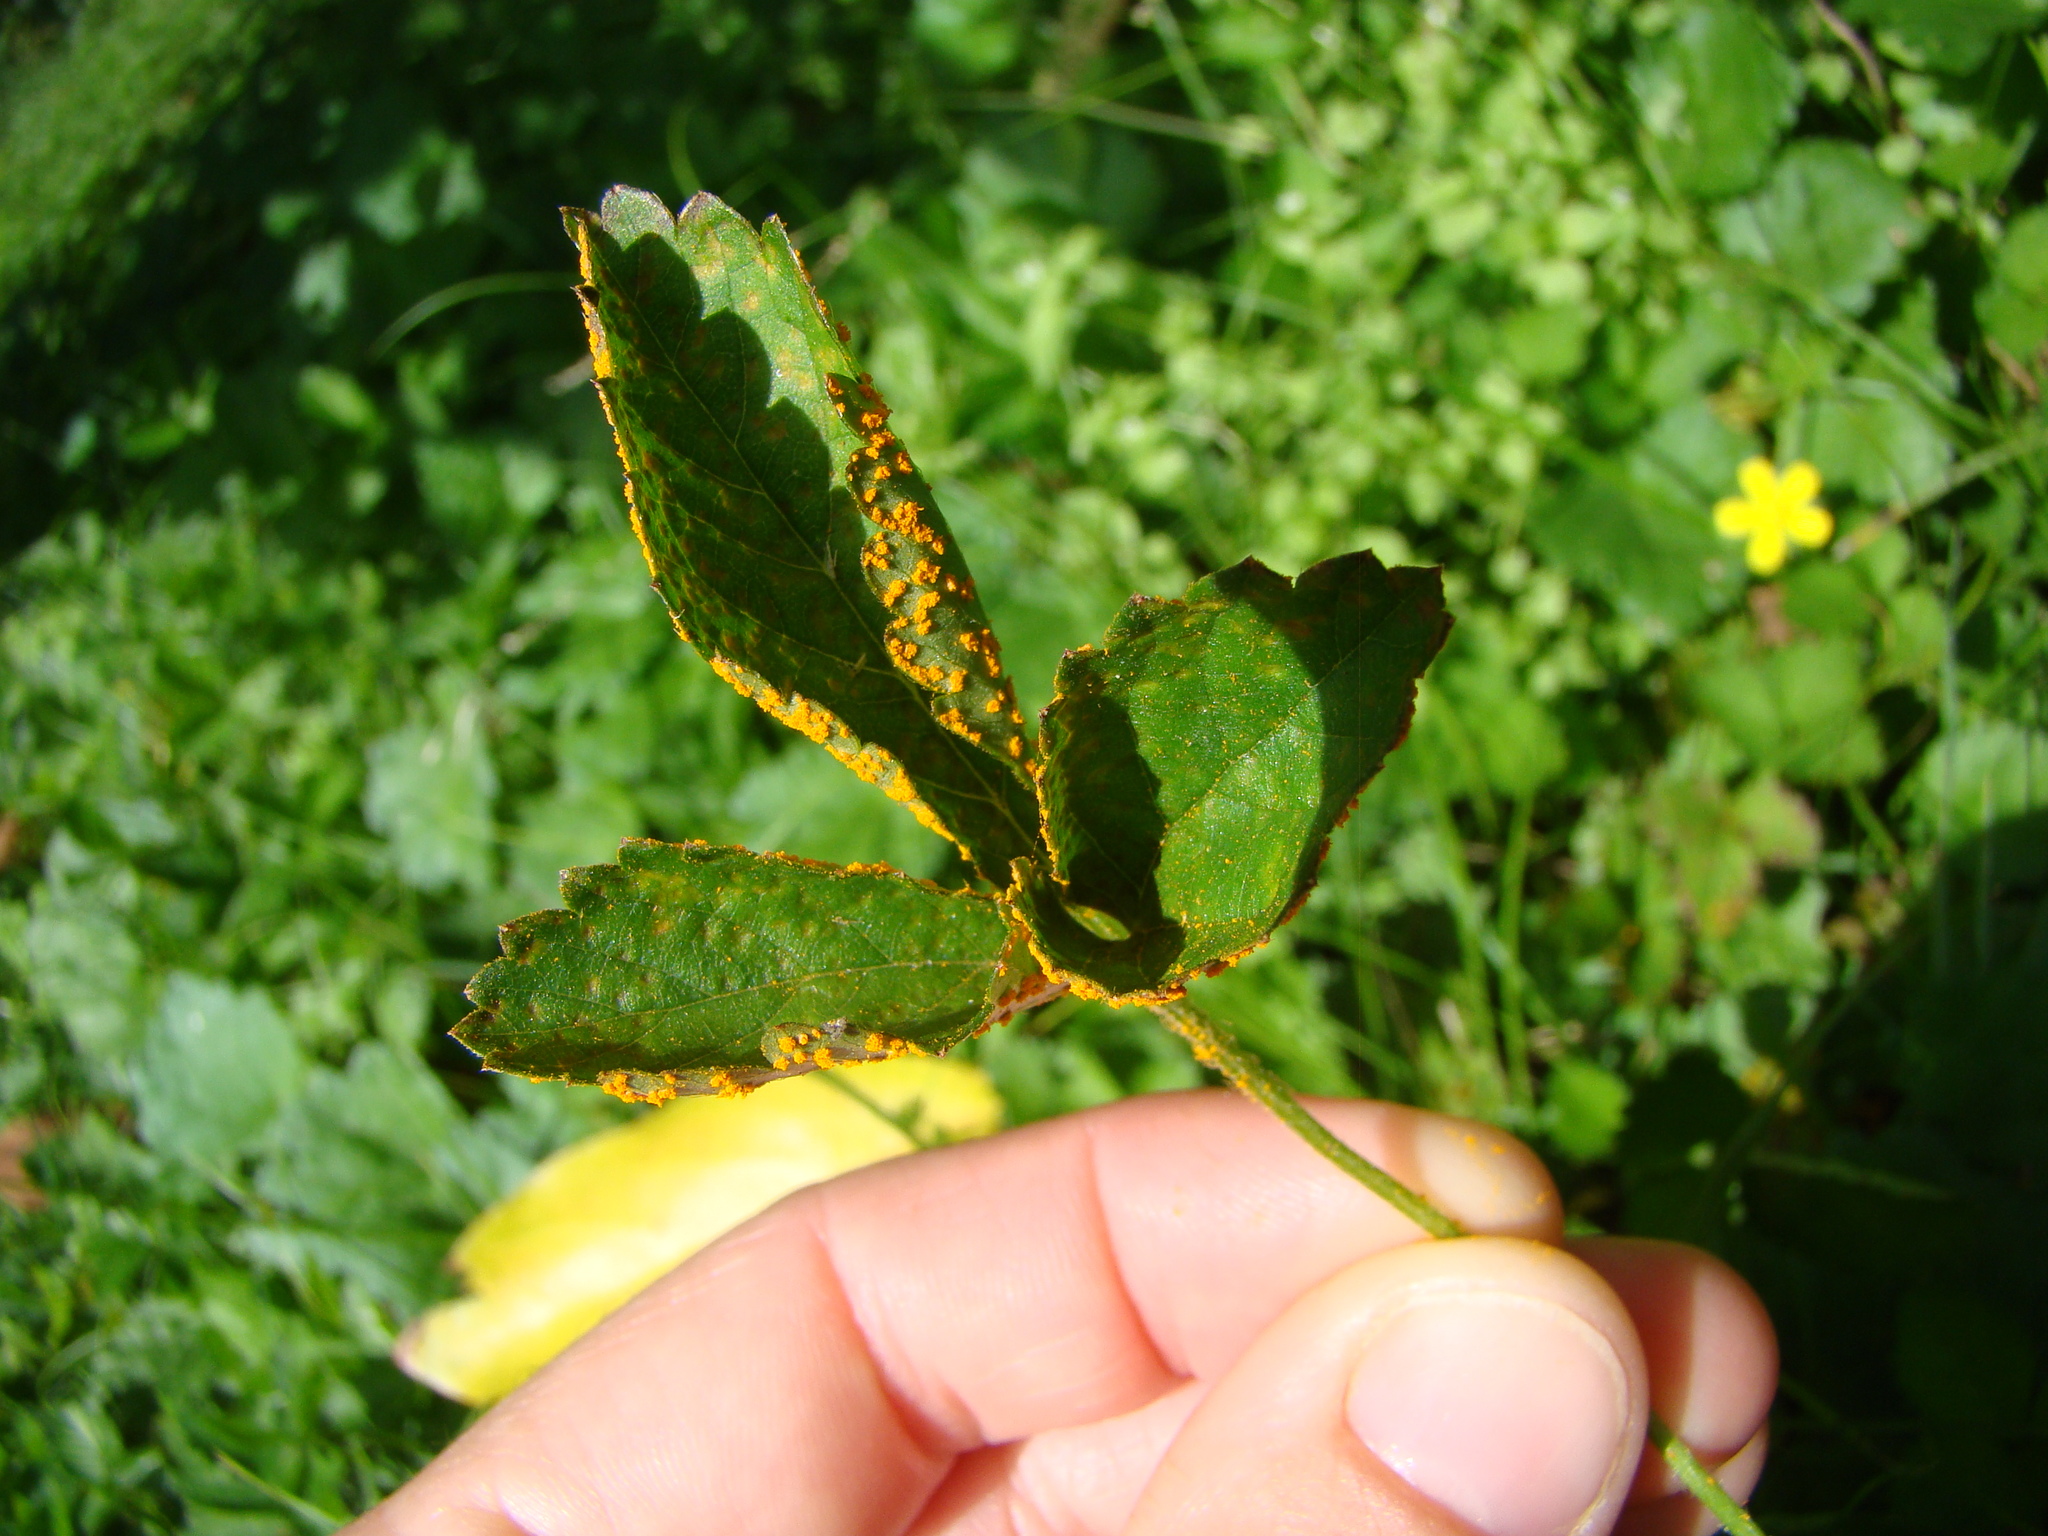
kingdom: Fungi
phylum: Basidiomycota
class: Pucciniomycetes
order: Pucciniales
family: Phragmidiaceae
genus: Phragmidium
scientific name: Phragmidium mexicanum
